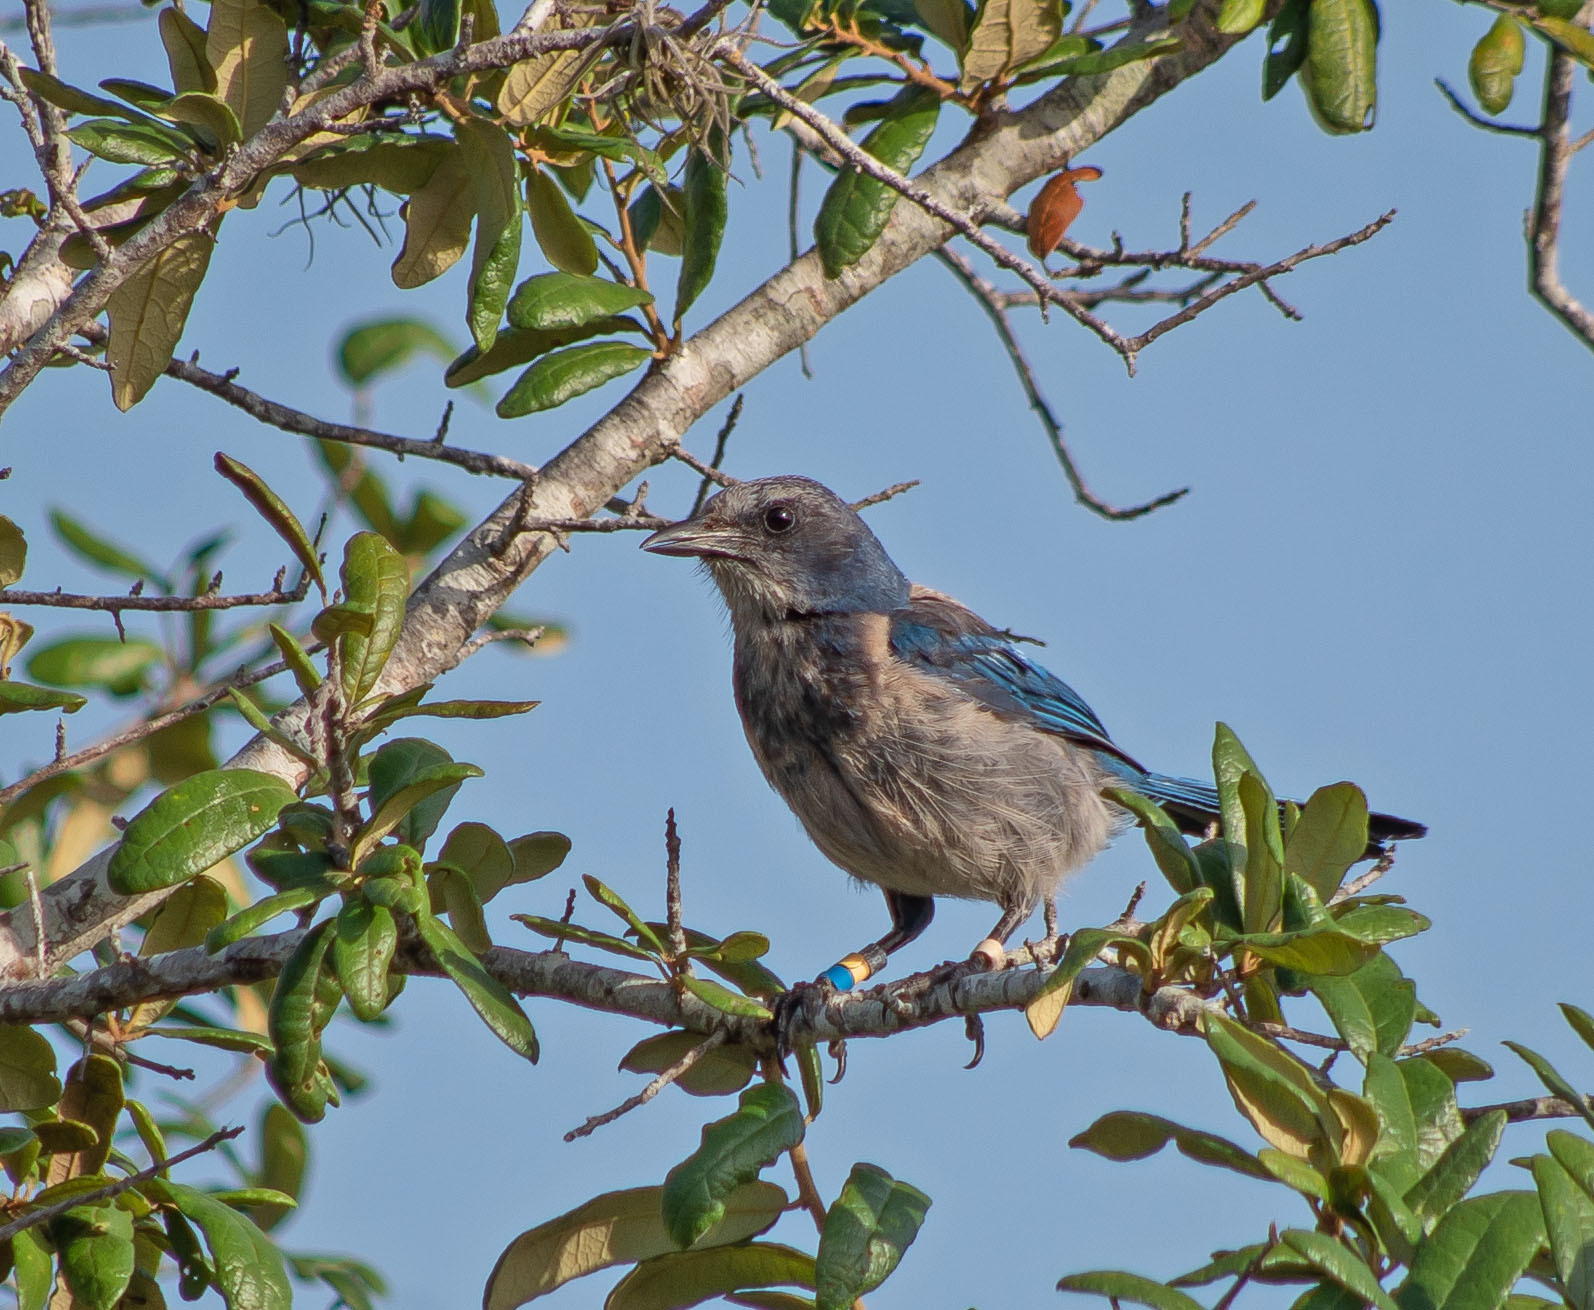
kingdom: Animalia
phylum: Chordata
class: Aves
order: Passeriformes
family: Corvidae
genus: Aphelocoma
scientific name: Aphelocoma coerulescens
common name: Florida scrub jay
